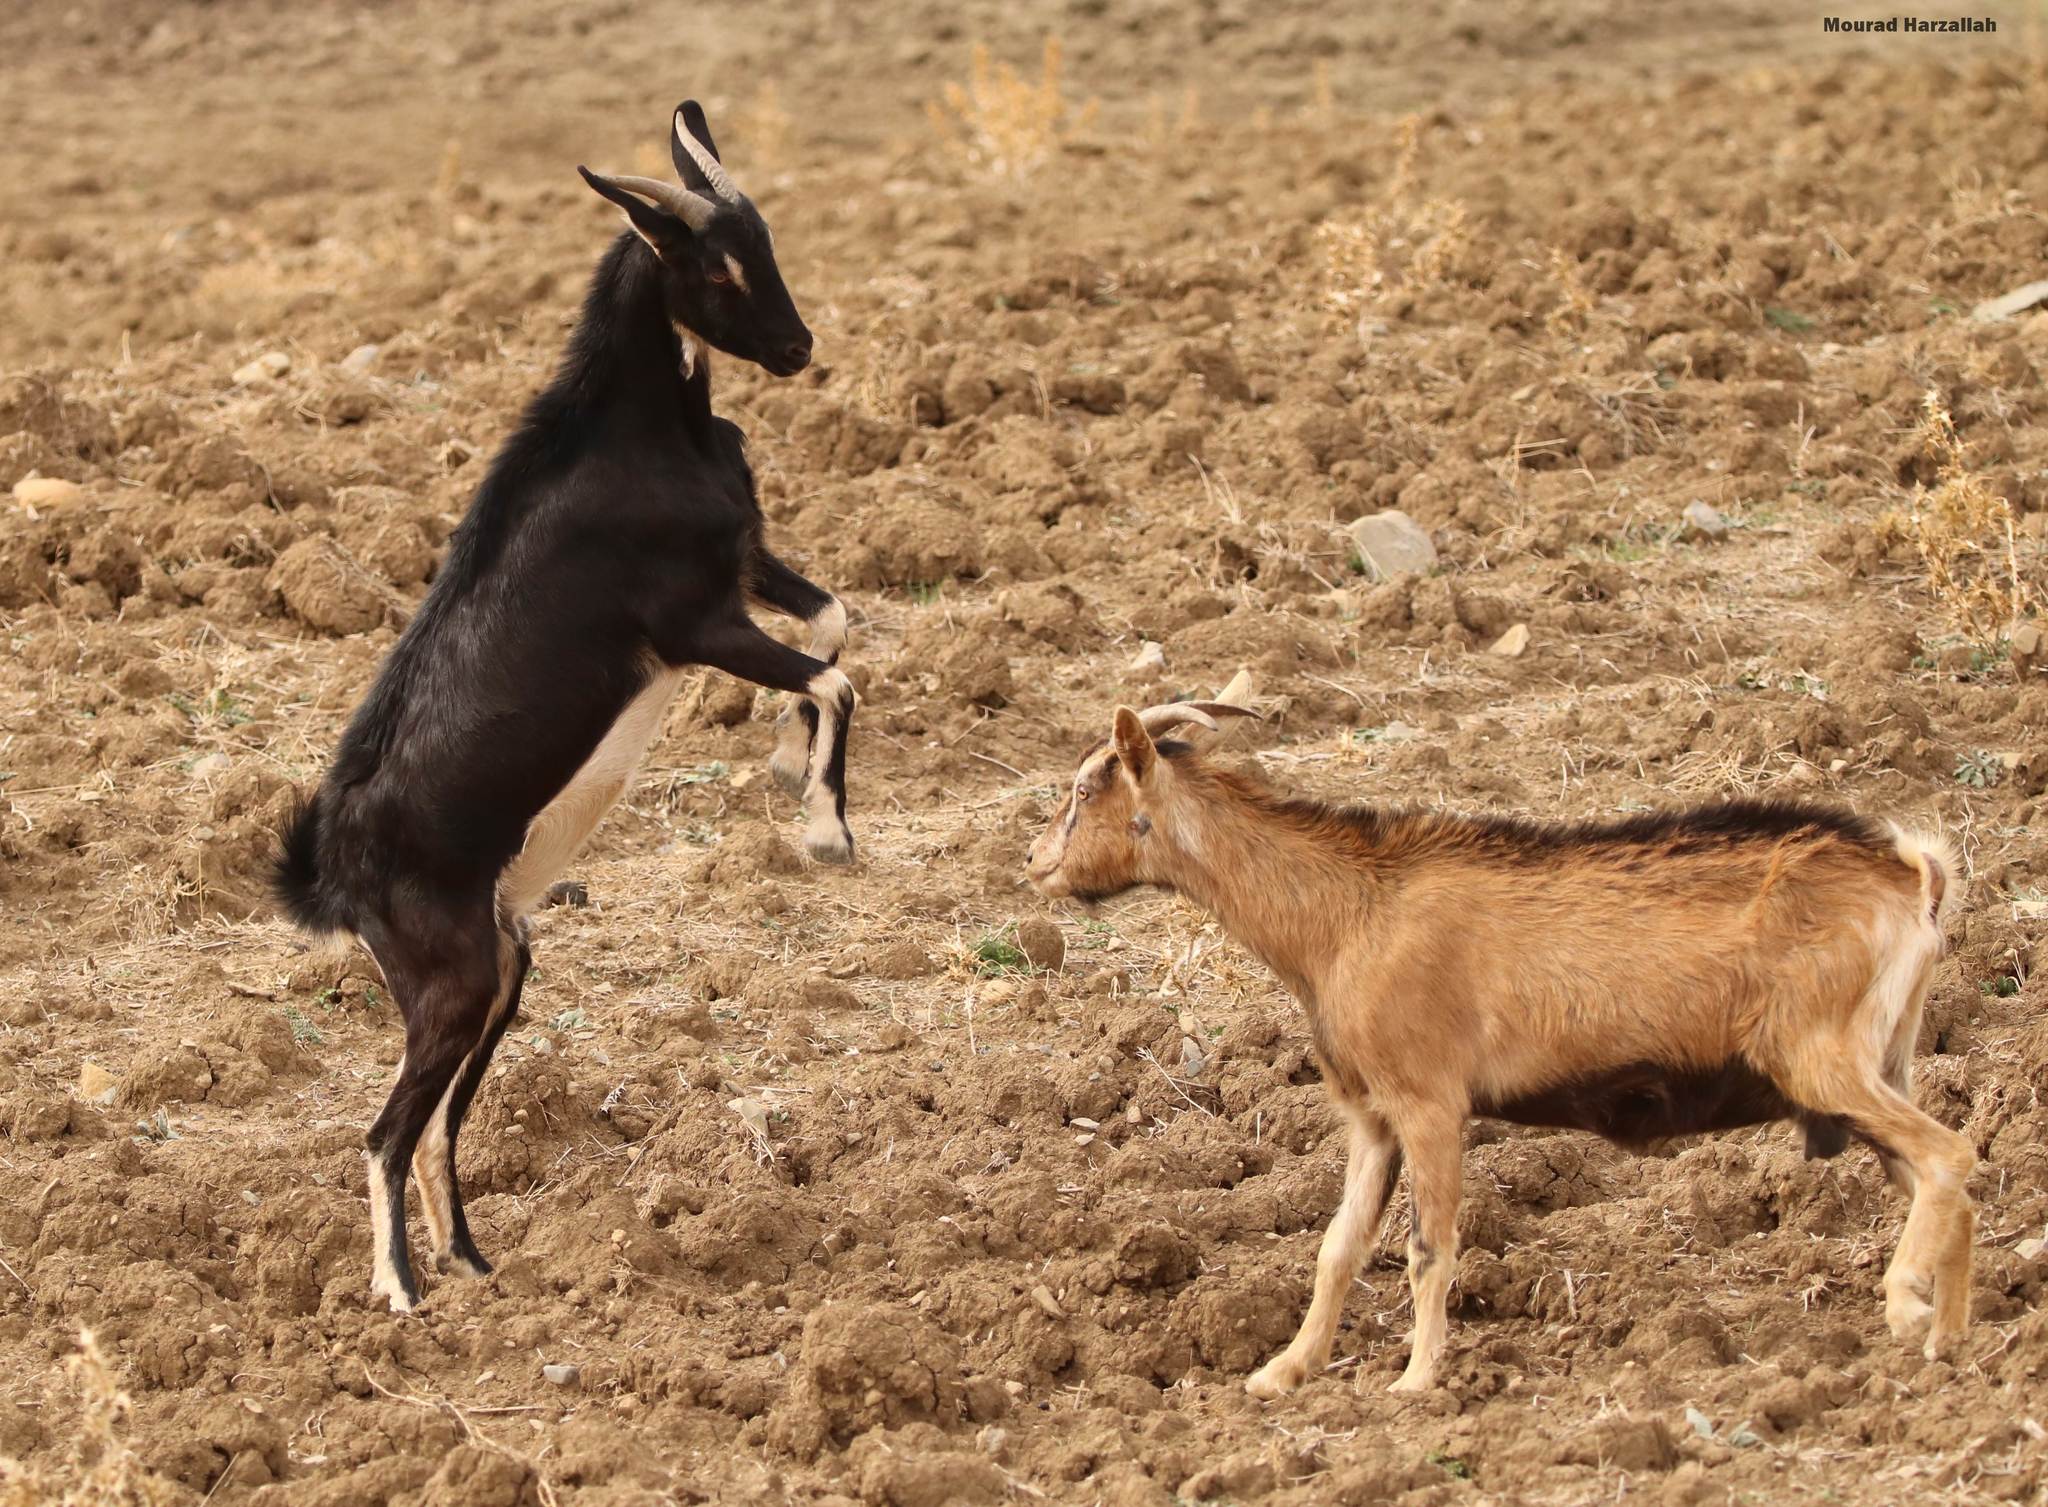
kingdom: Animalia
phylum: Chordata
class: Mammalia
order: Artiodactyla
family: Bovidae
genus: Capra
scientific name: Capra hircus
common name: Domestic goat
